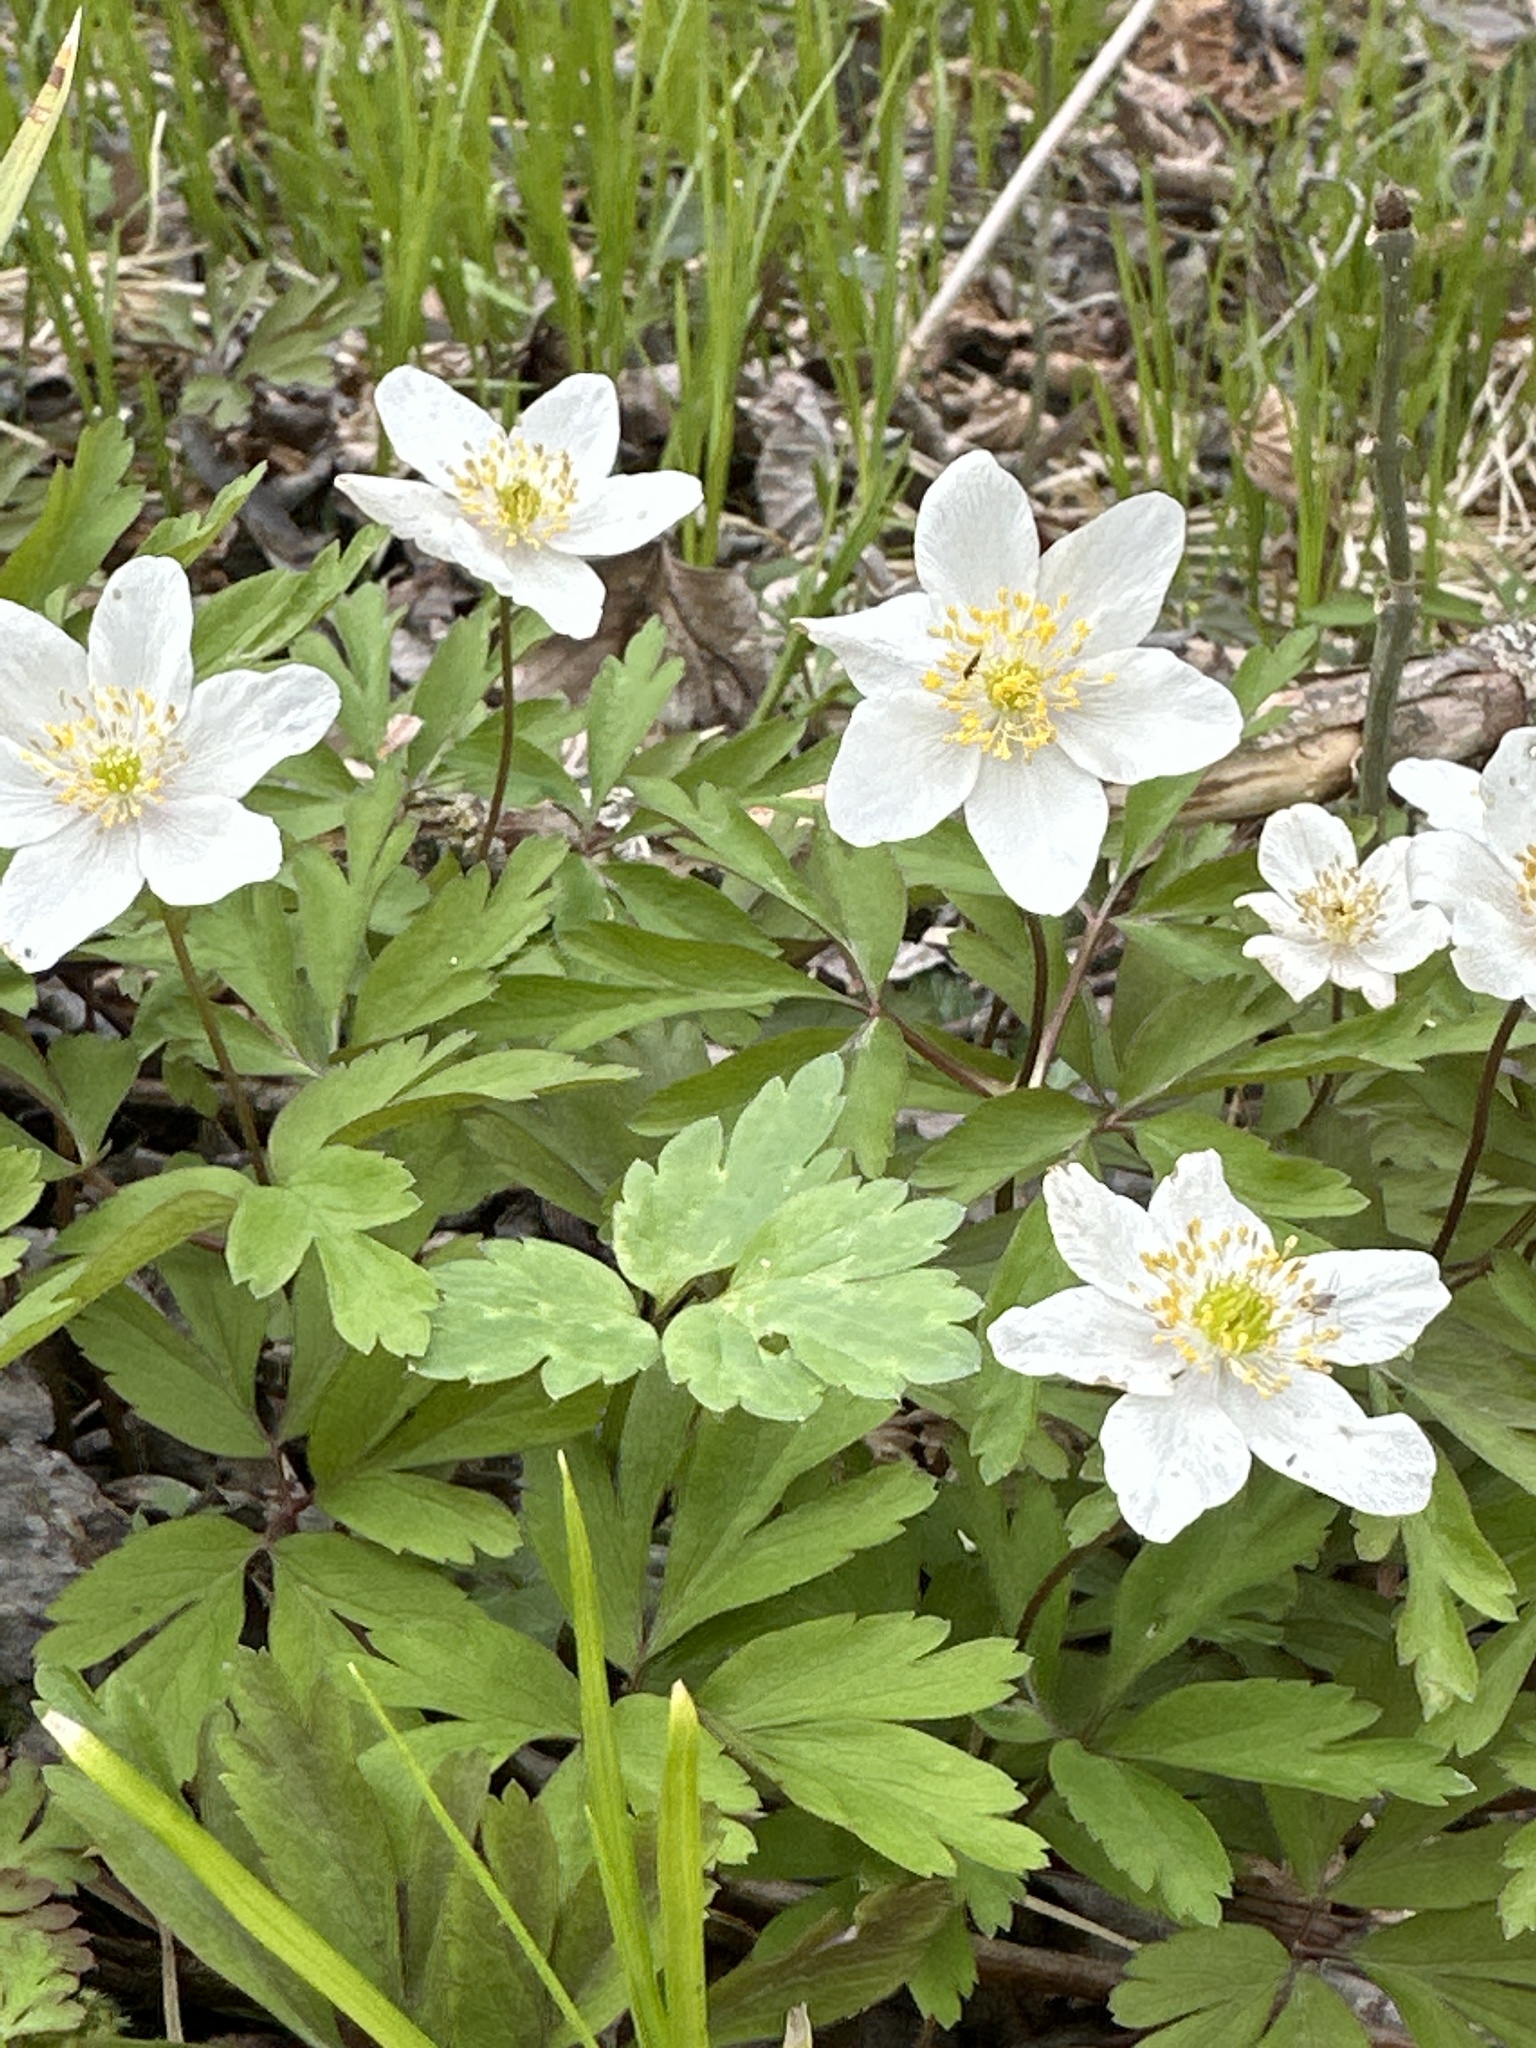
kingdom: Plantae
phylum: Tracheophyta
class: Magnoliopsida
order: Ranunculales
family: Ranunculaceae
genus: Anemone
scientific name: Anemone nemorosa
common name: Wood anemone
